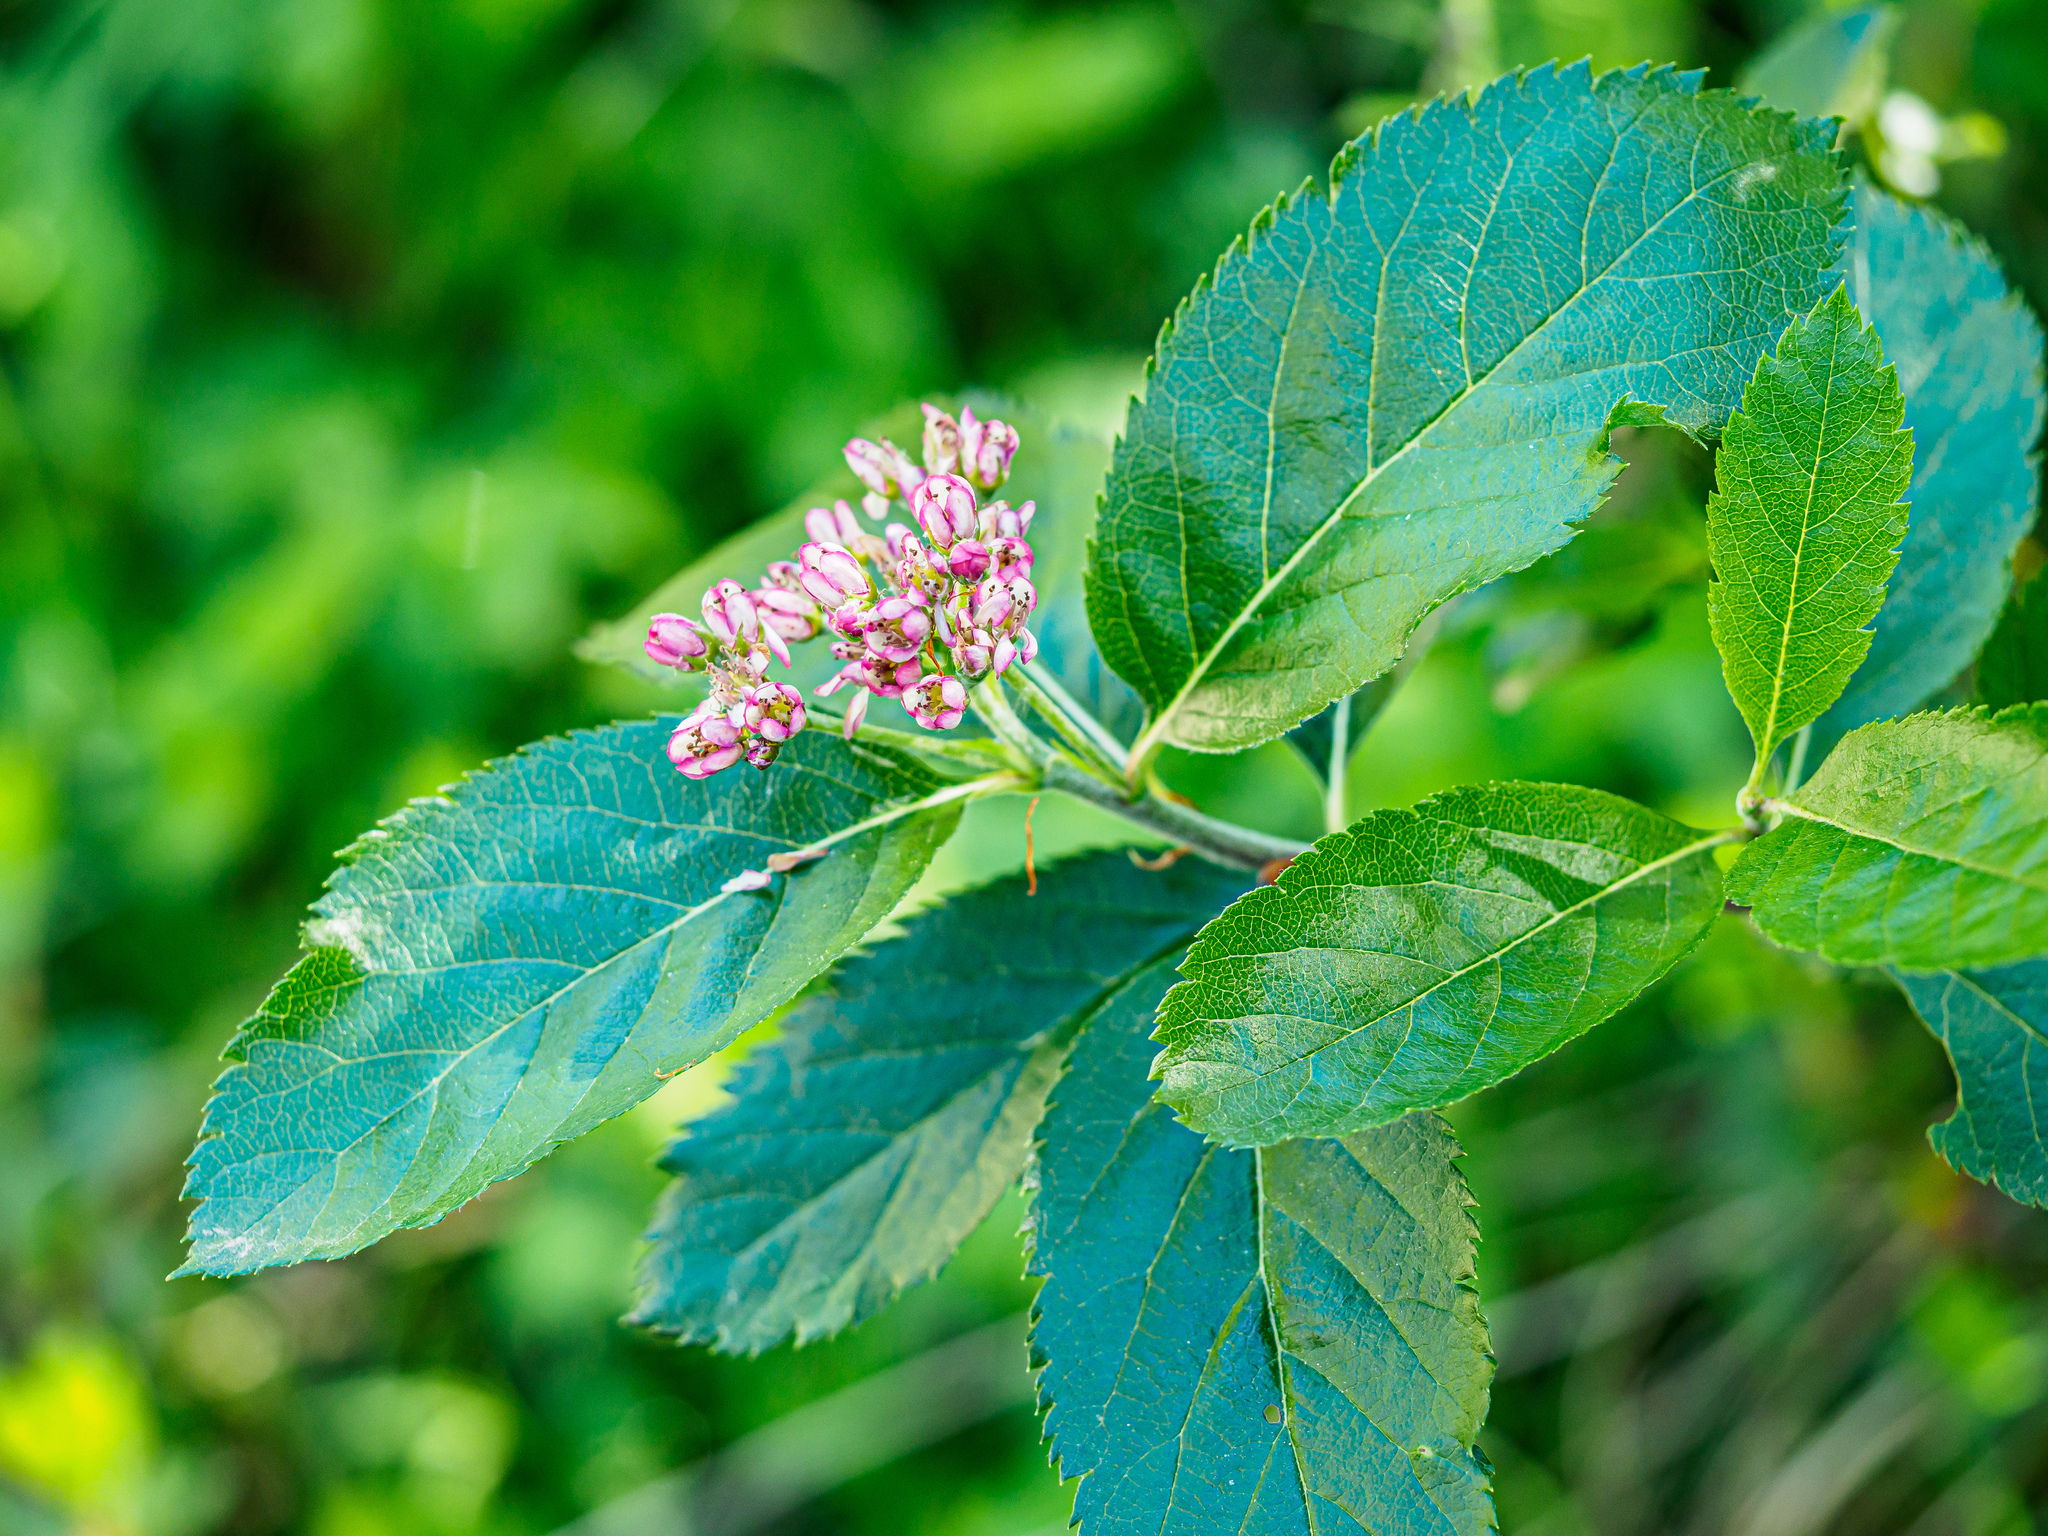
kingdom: Plantae
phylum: Tracheophyta
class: Magnoliopsida
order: Rosales
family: Rosaceae
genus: Chamaemespilus
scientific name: Chamaemespilus alpina
